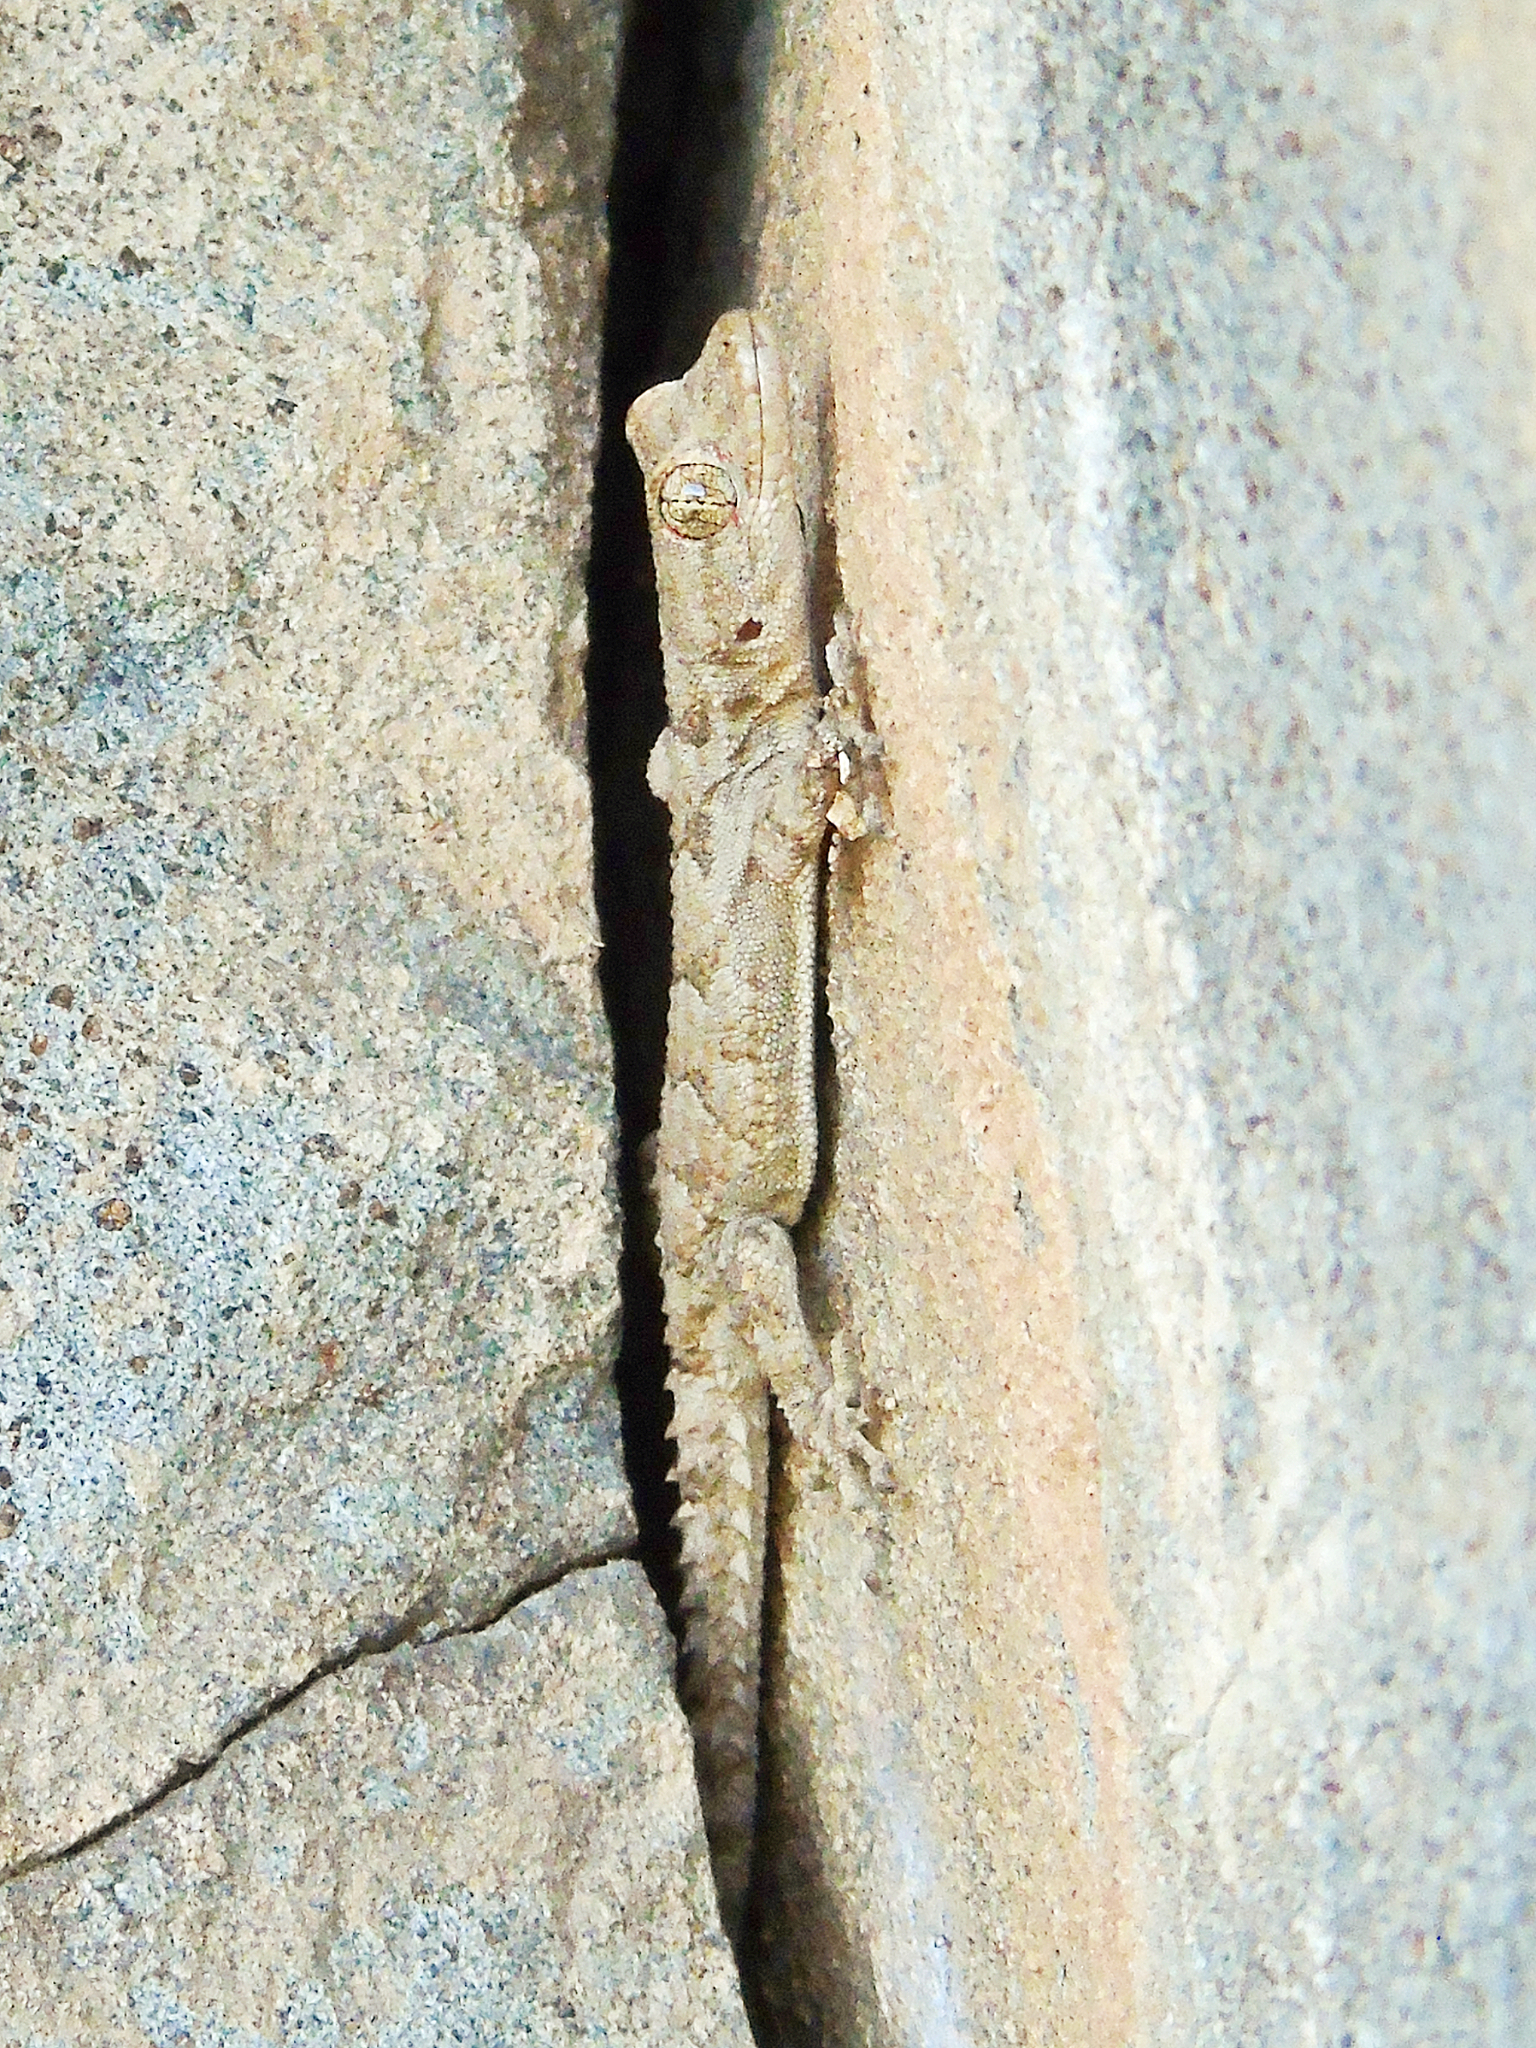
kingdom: Animalia
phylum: Chordata
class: Squamata
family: Gekkonidae
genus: Mediodactylus
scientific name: Mediodactylus heterocercus
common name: Asia minor thin-toed gecko
